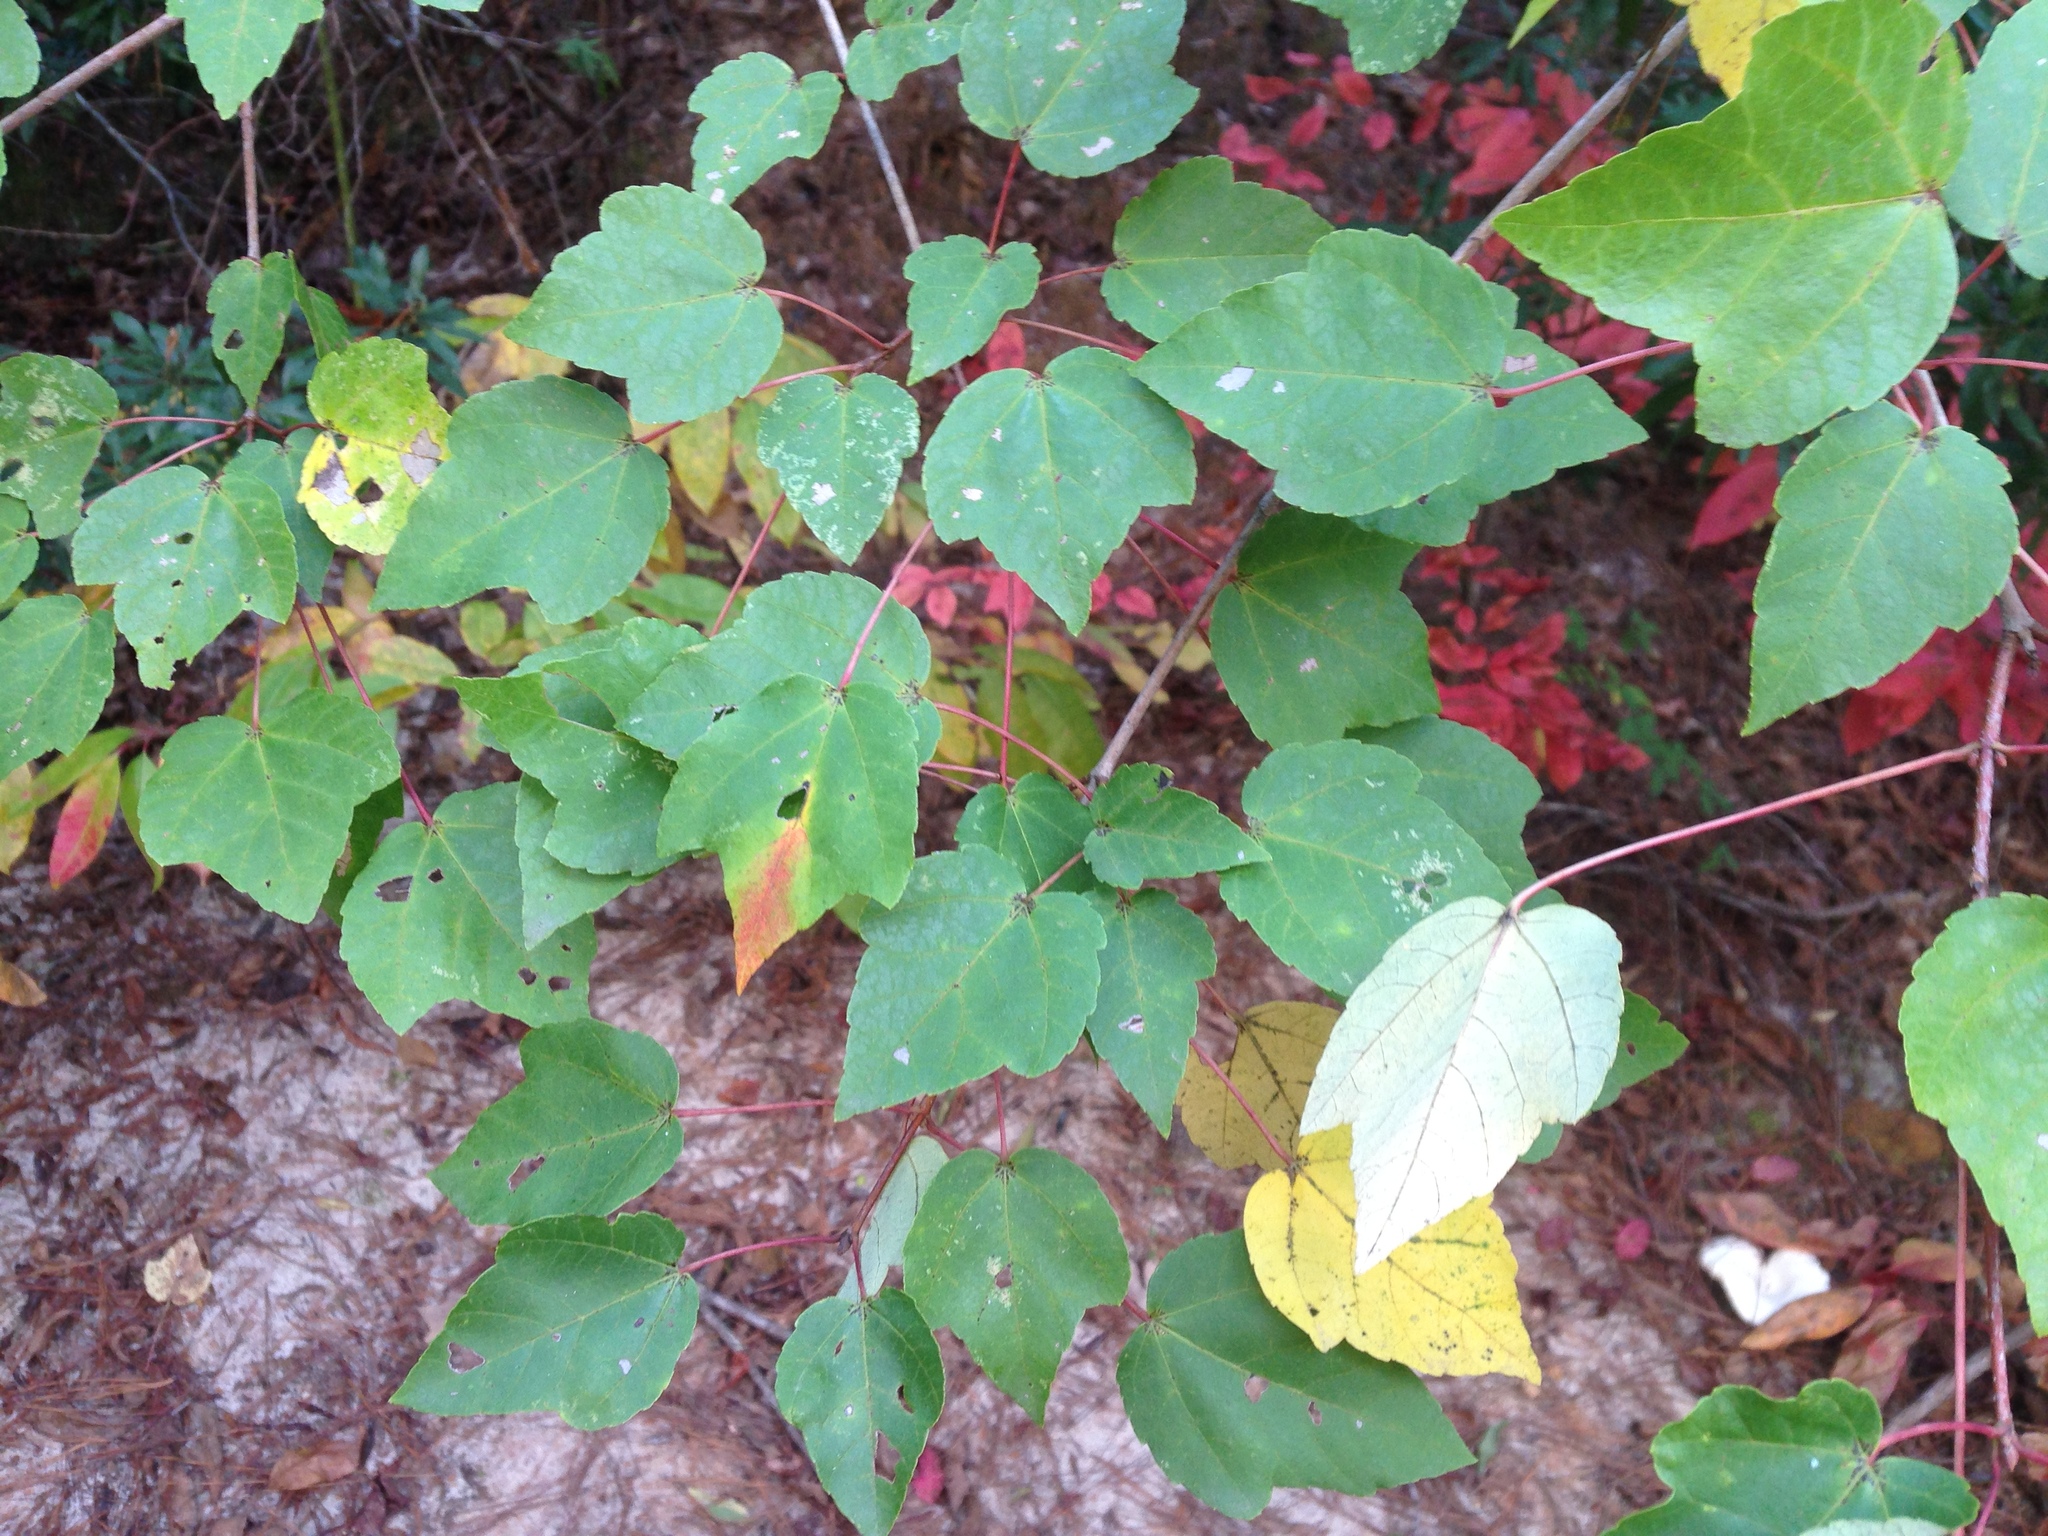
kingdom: Plantae
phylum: Tracheophyta
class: Magnoliopsida
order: Sapindales
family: Sapindaceae
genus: Acer
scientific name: Acer rubrum
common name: Red maple
